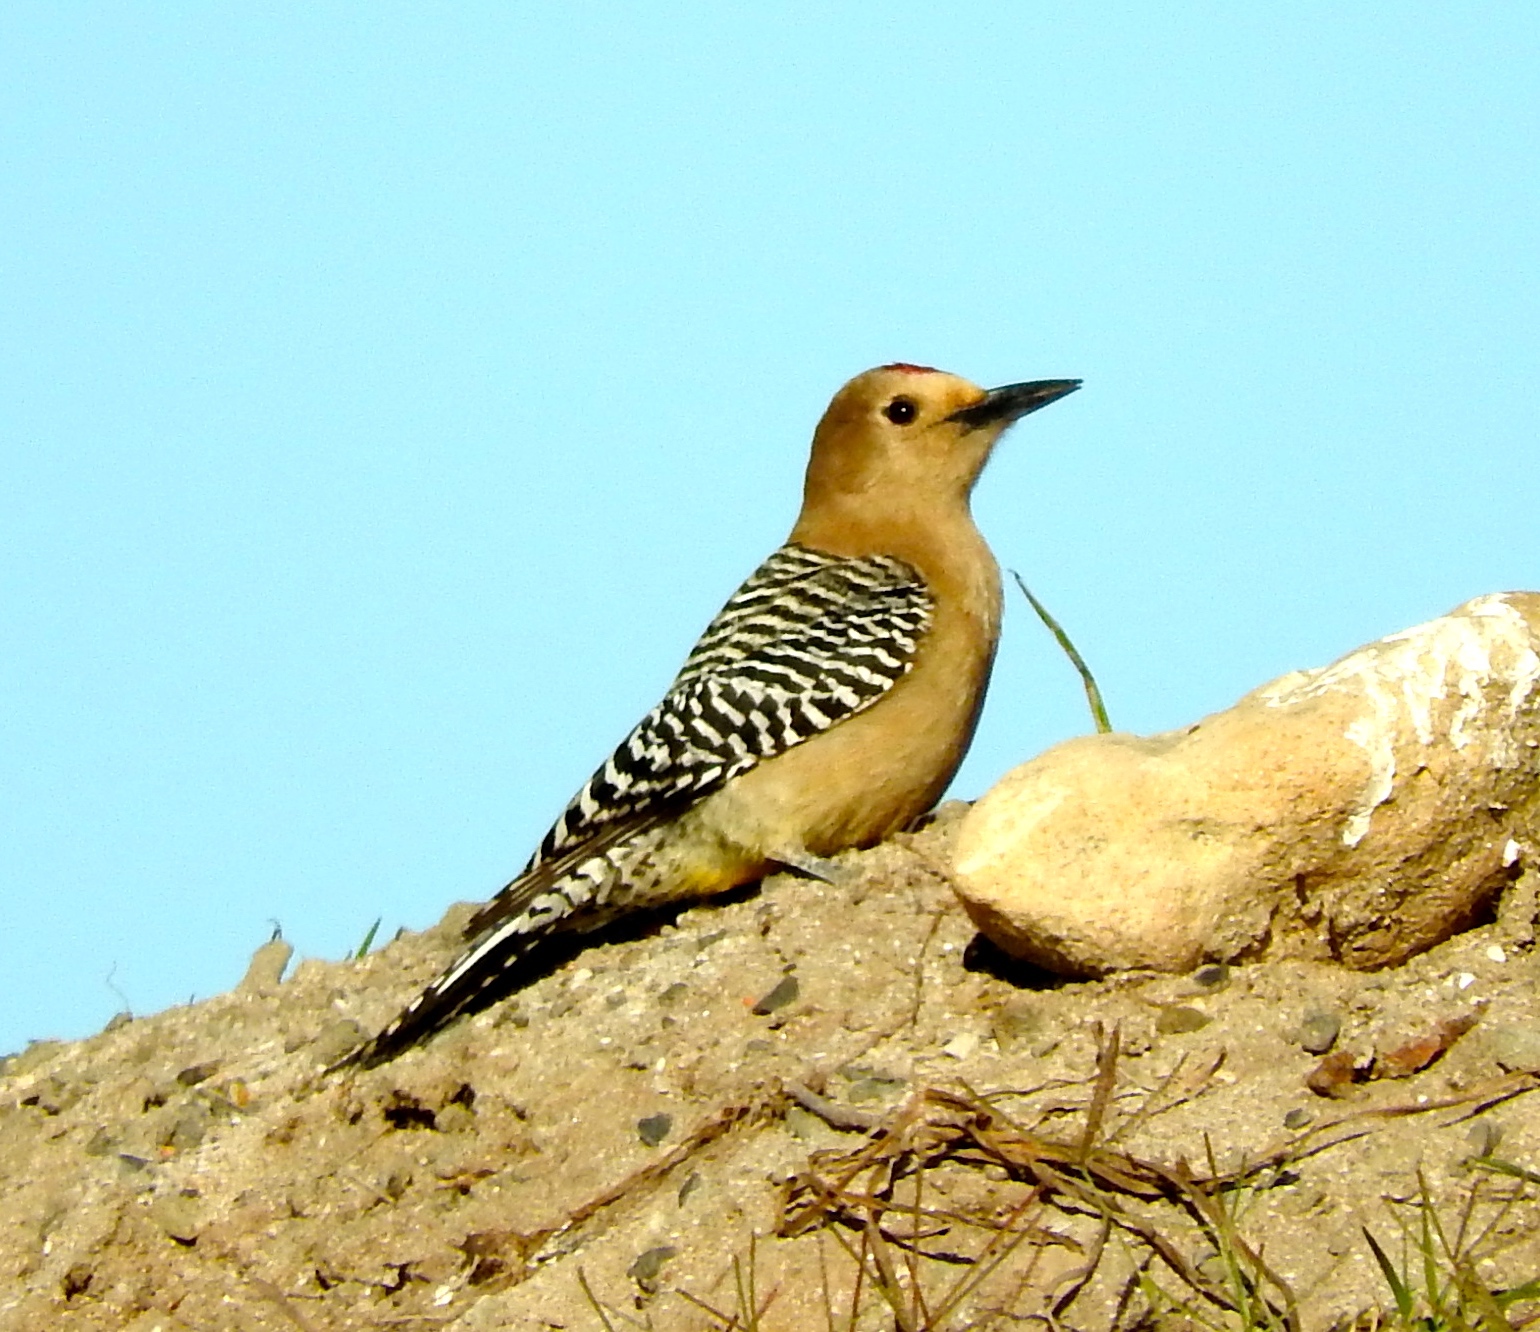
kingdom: Animalia
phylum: Chordata
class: Aves
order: Piciformes
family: Picidae
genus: Melanerpes
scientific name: Melanerpes uropygialis
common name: Gila woodpecker
